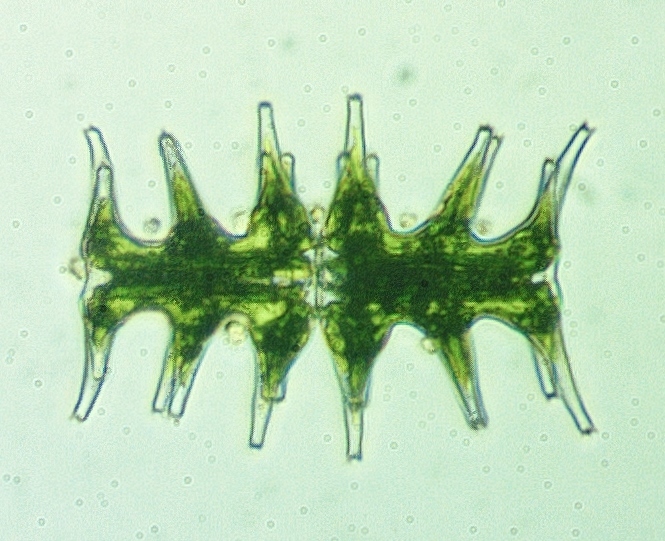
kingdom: Plantae
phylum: Charophyta
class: Conjugatophyceae
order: Desmidiales
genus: Micrasterias
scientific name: Micrasterias muricata
